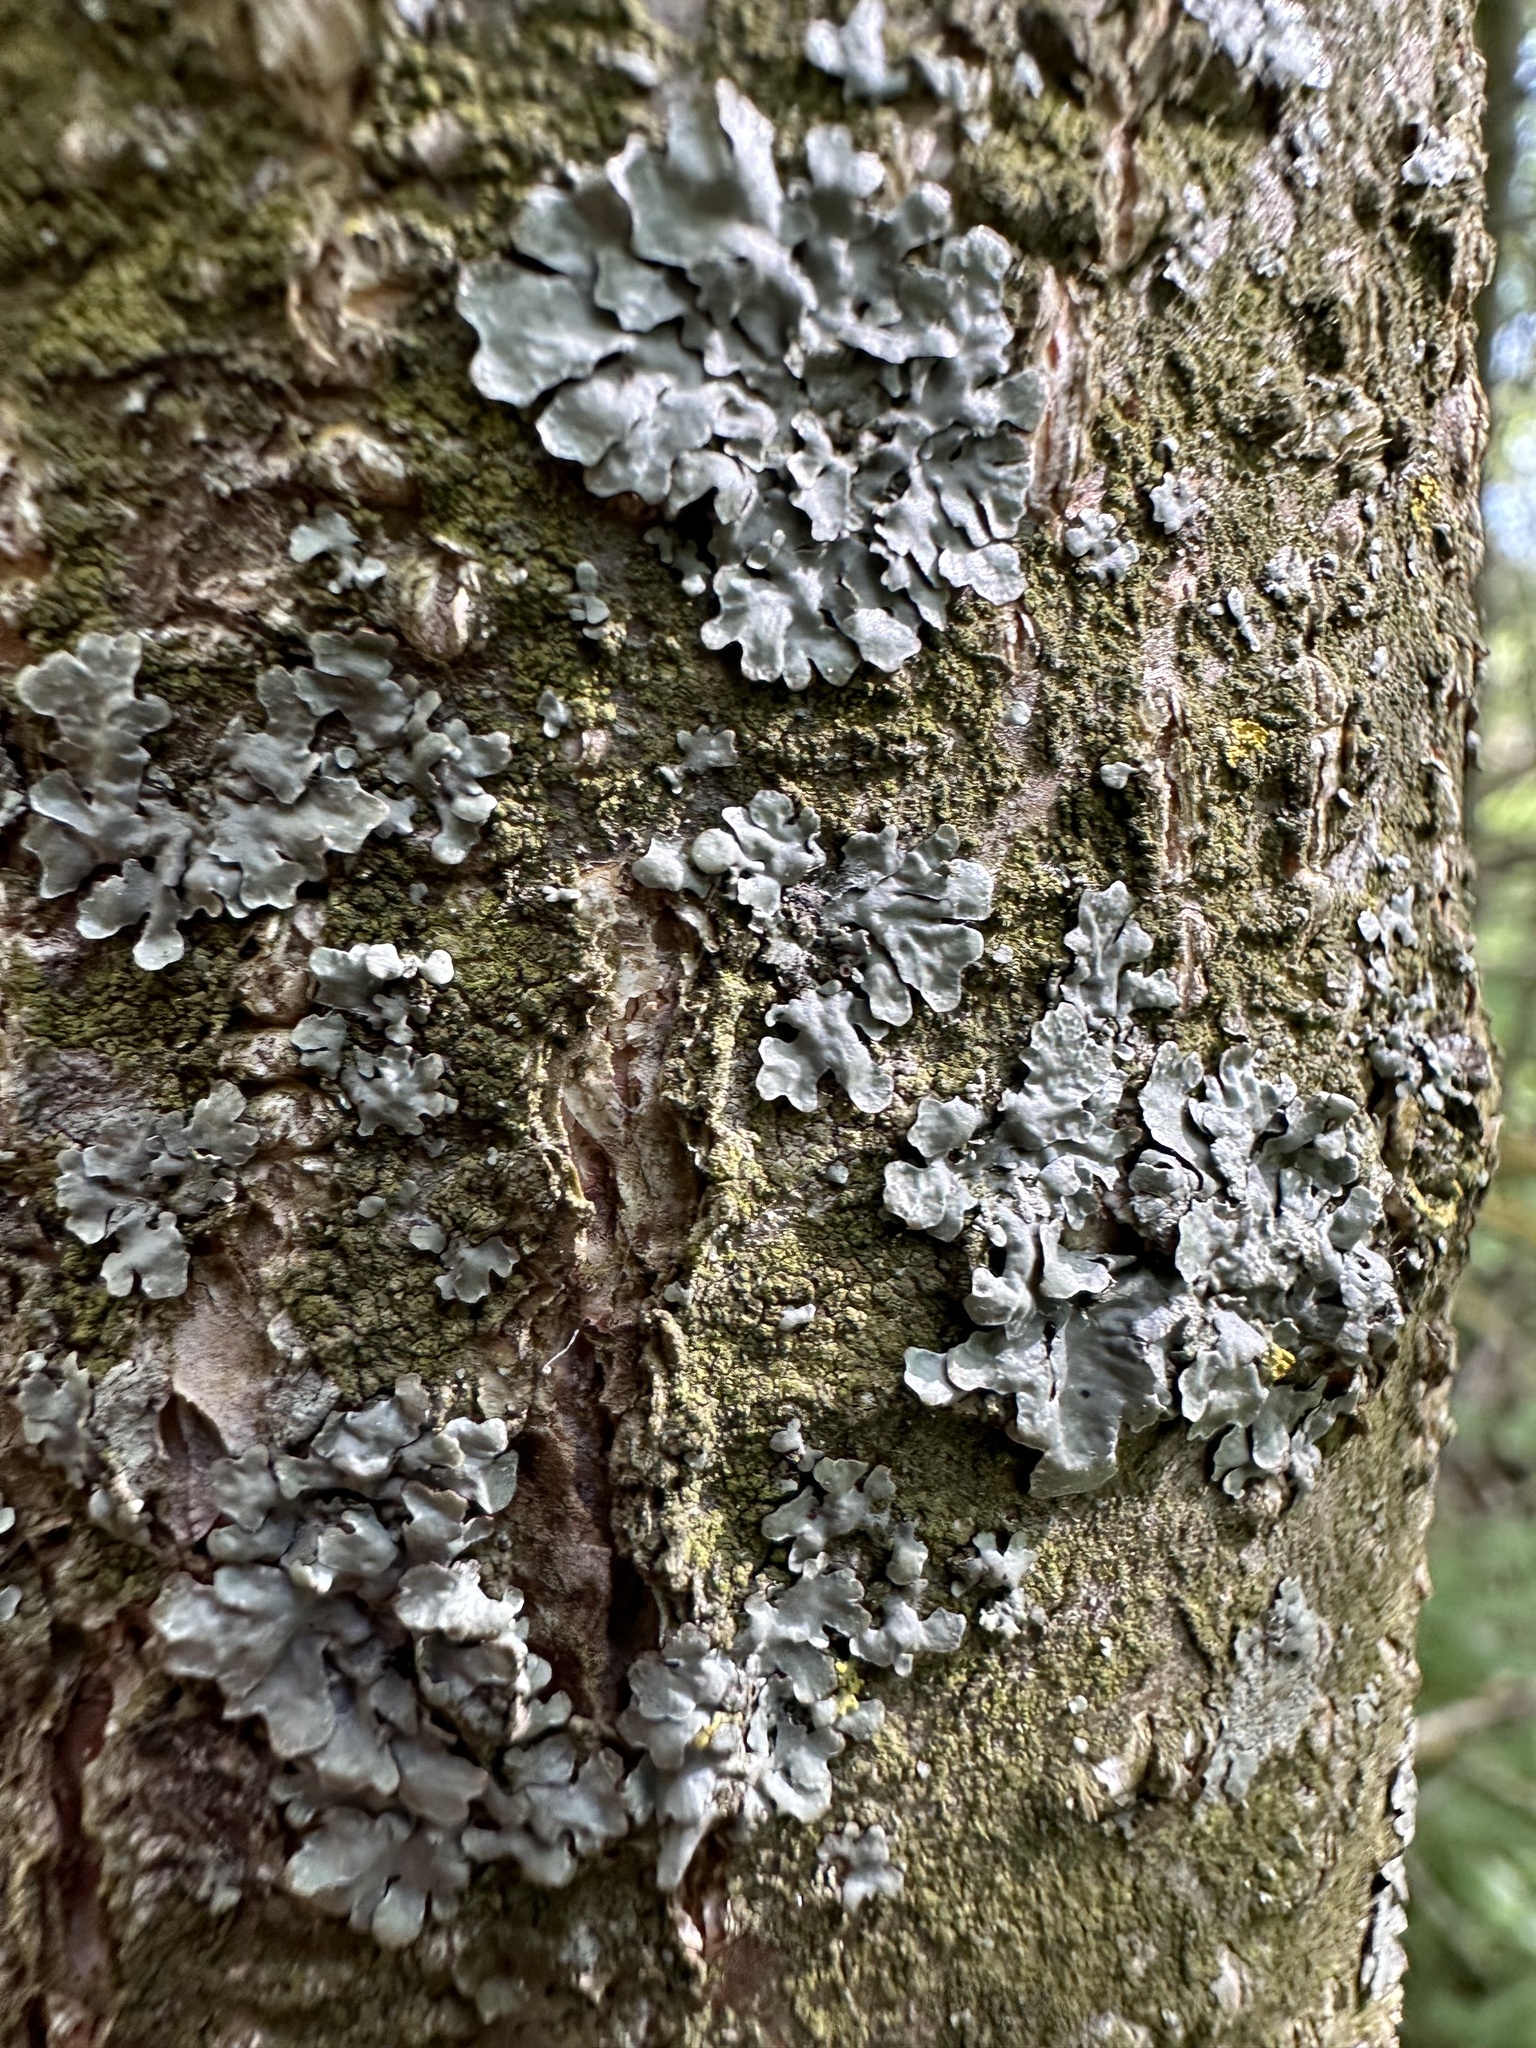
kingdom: Fungi
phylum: Ascomycota
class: Lecanoromycetes
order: Lecanorales
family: Parmeliaceae
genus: Parmelia
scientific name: Parmelia sulcata
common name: Netted shield lichen
